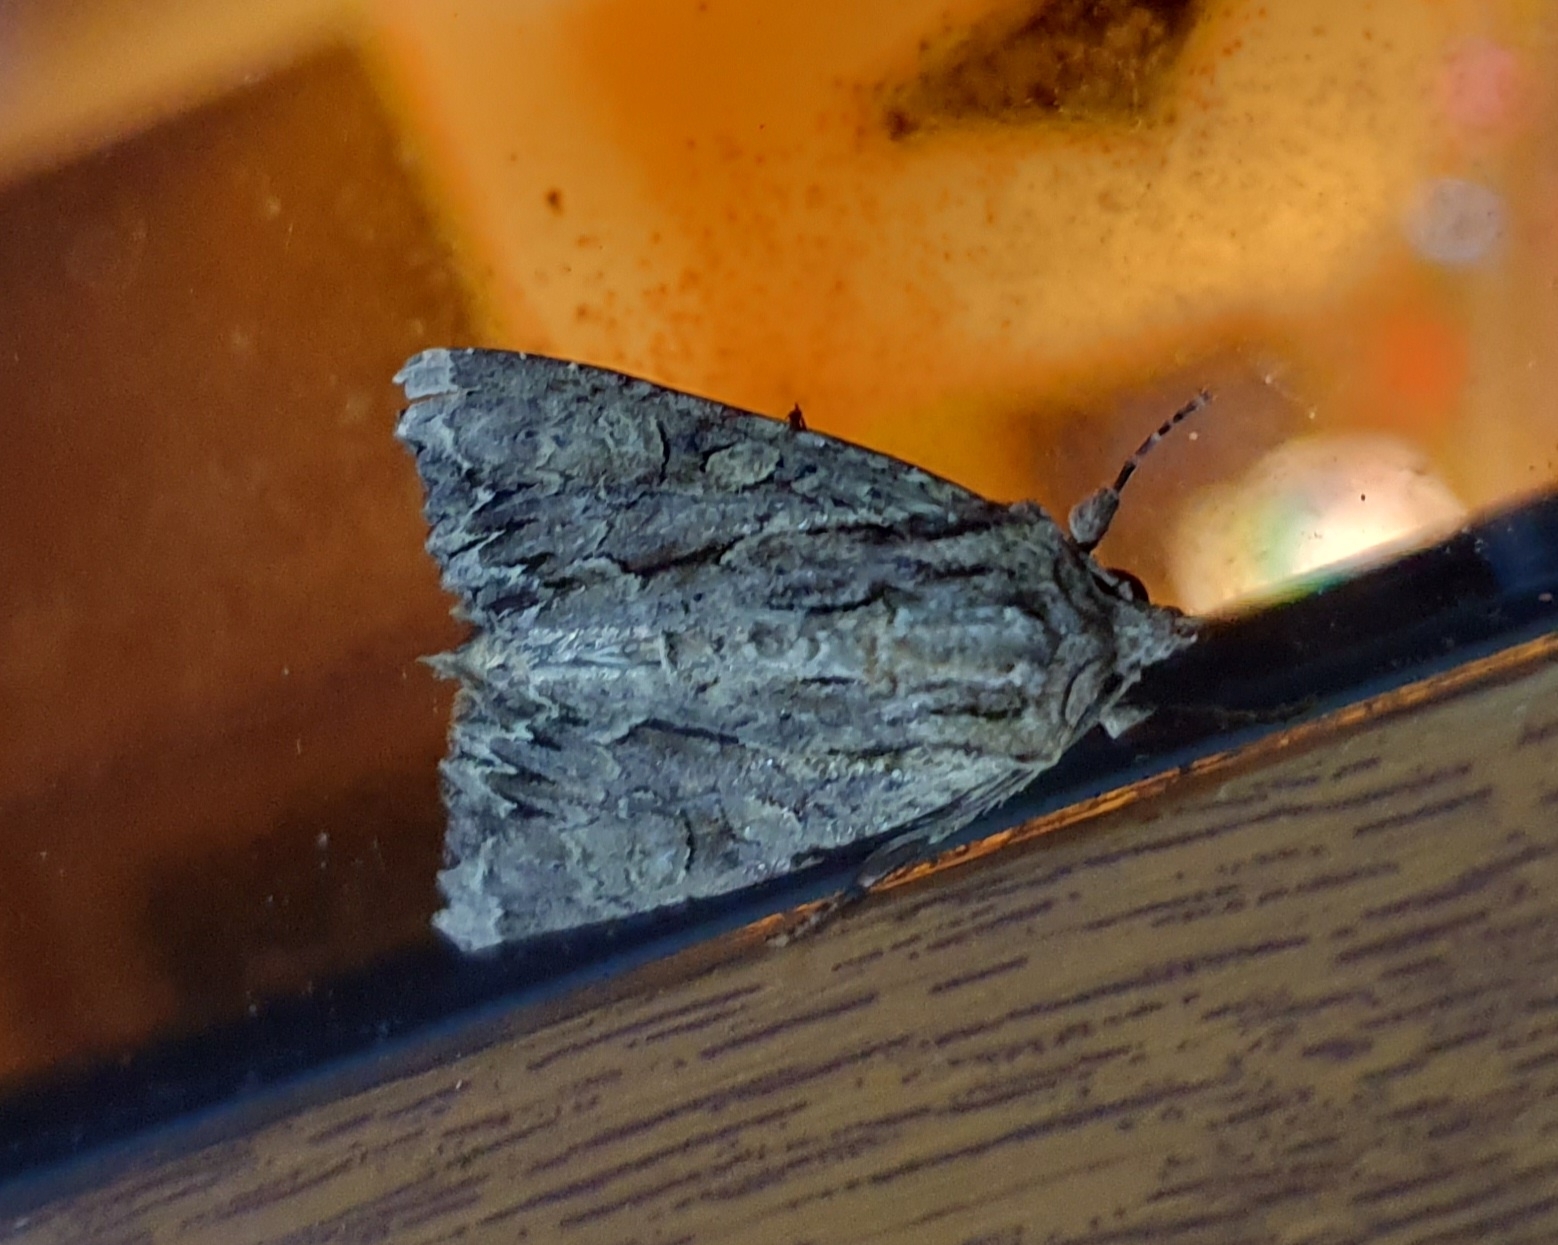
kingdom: Animalia
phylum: Arthropoda
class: Insecta
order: Lepidoptera
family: Noctuidae
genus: Apamea
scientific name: Apamea monoglypha
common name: Dark arches
